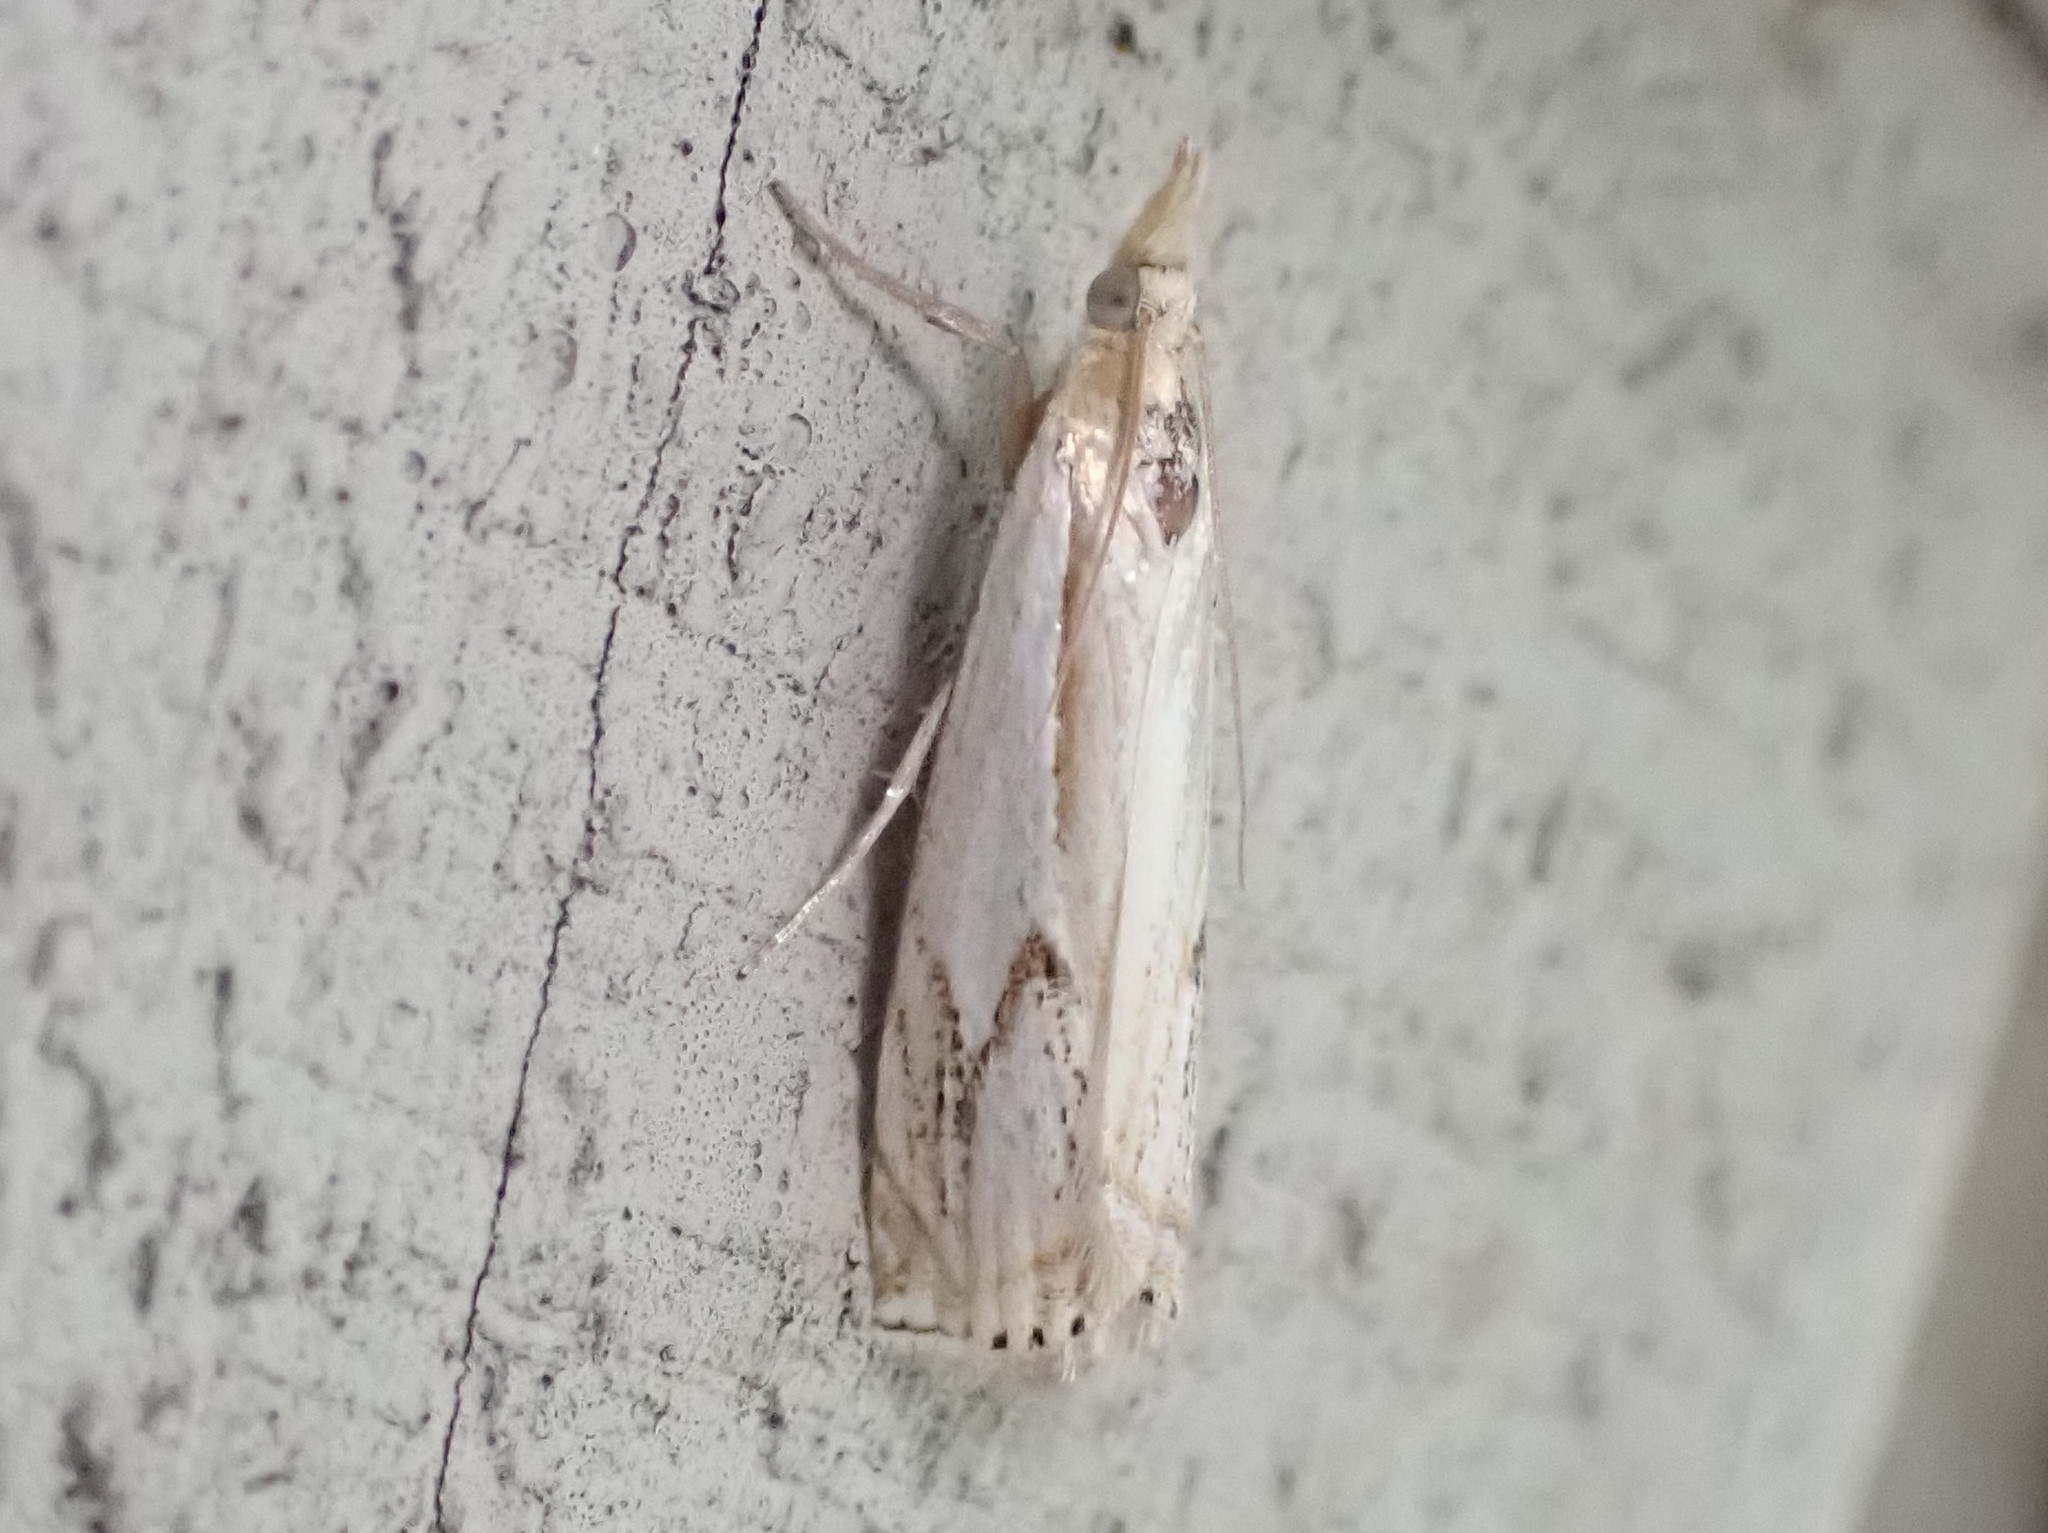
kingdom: Animalia
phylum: Arthropoda
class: Insecta
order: Lepidoptera
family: Crambidae
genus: Crambus
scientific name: Crambus agitatellus
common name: Double-banded grass-veneer
